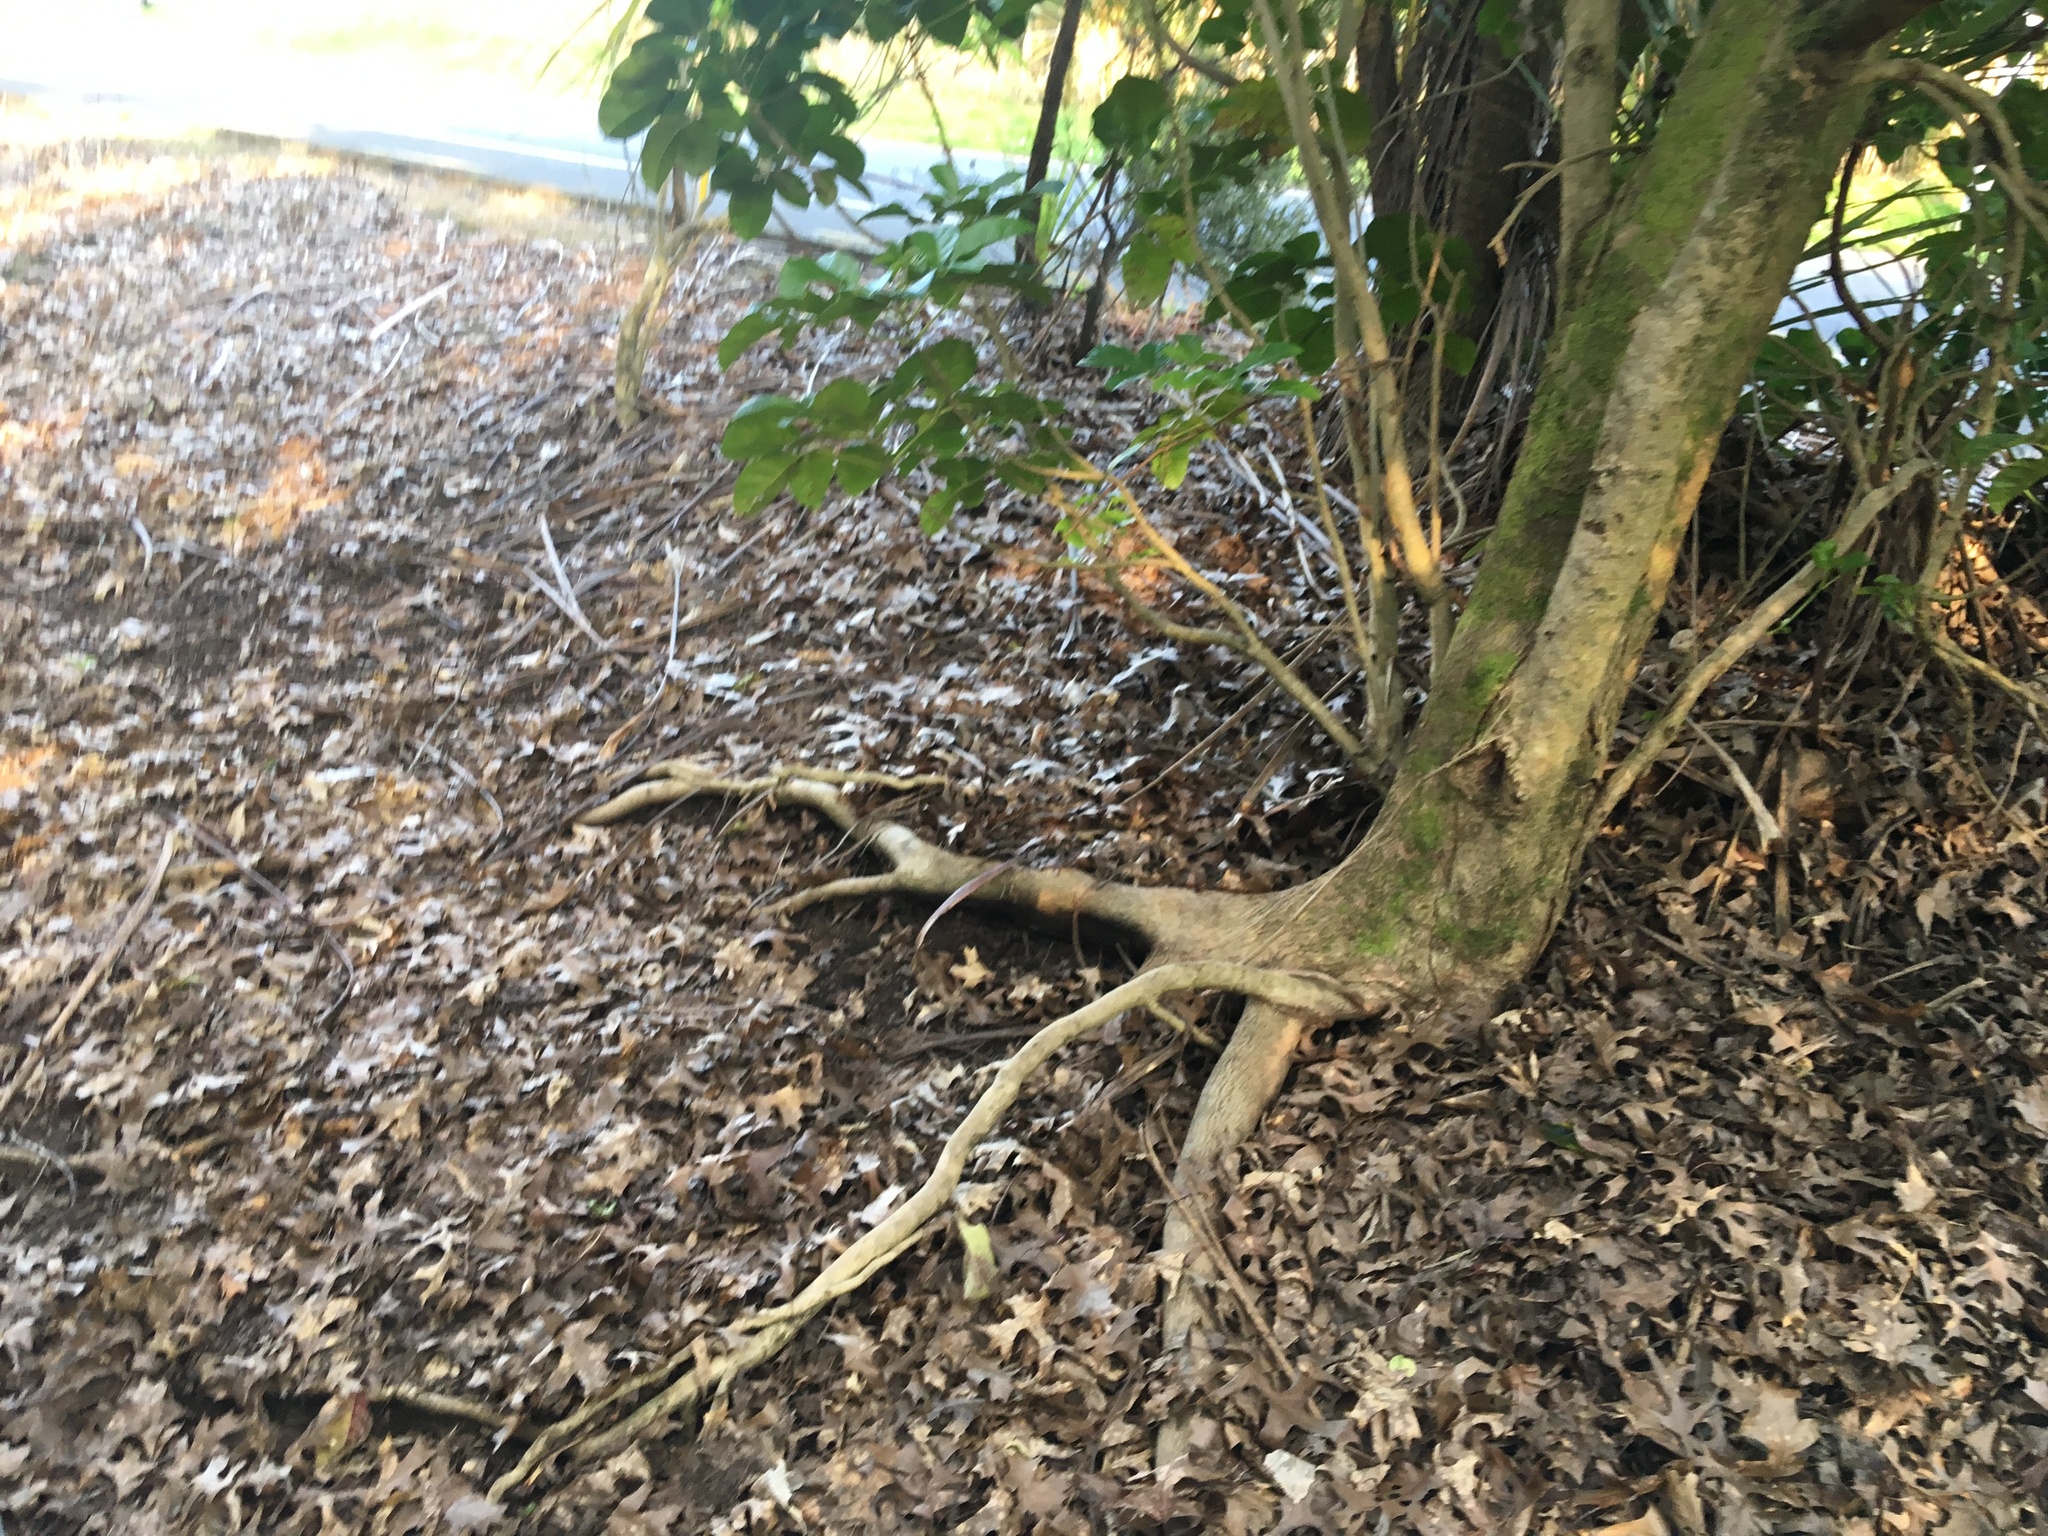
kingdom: Plantae
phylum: Tracheophyta
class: Magnoliopsida
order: Lamiales
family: Lamiaceae
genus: Vitex
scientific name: Vitex lucens
